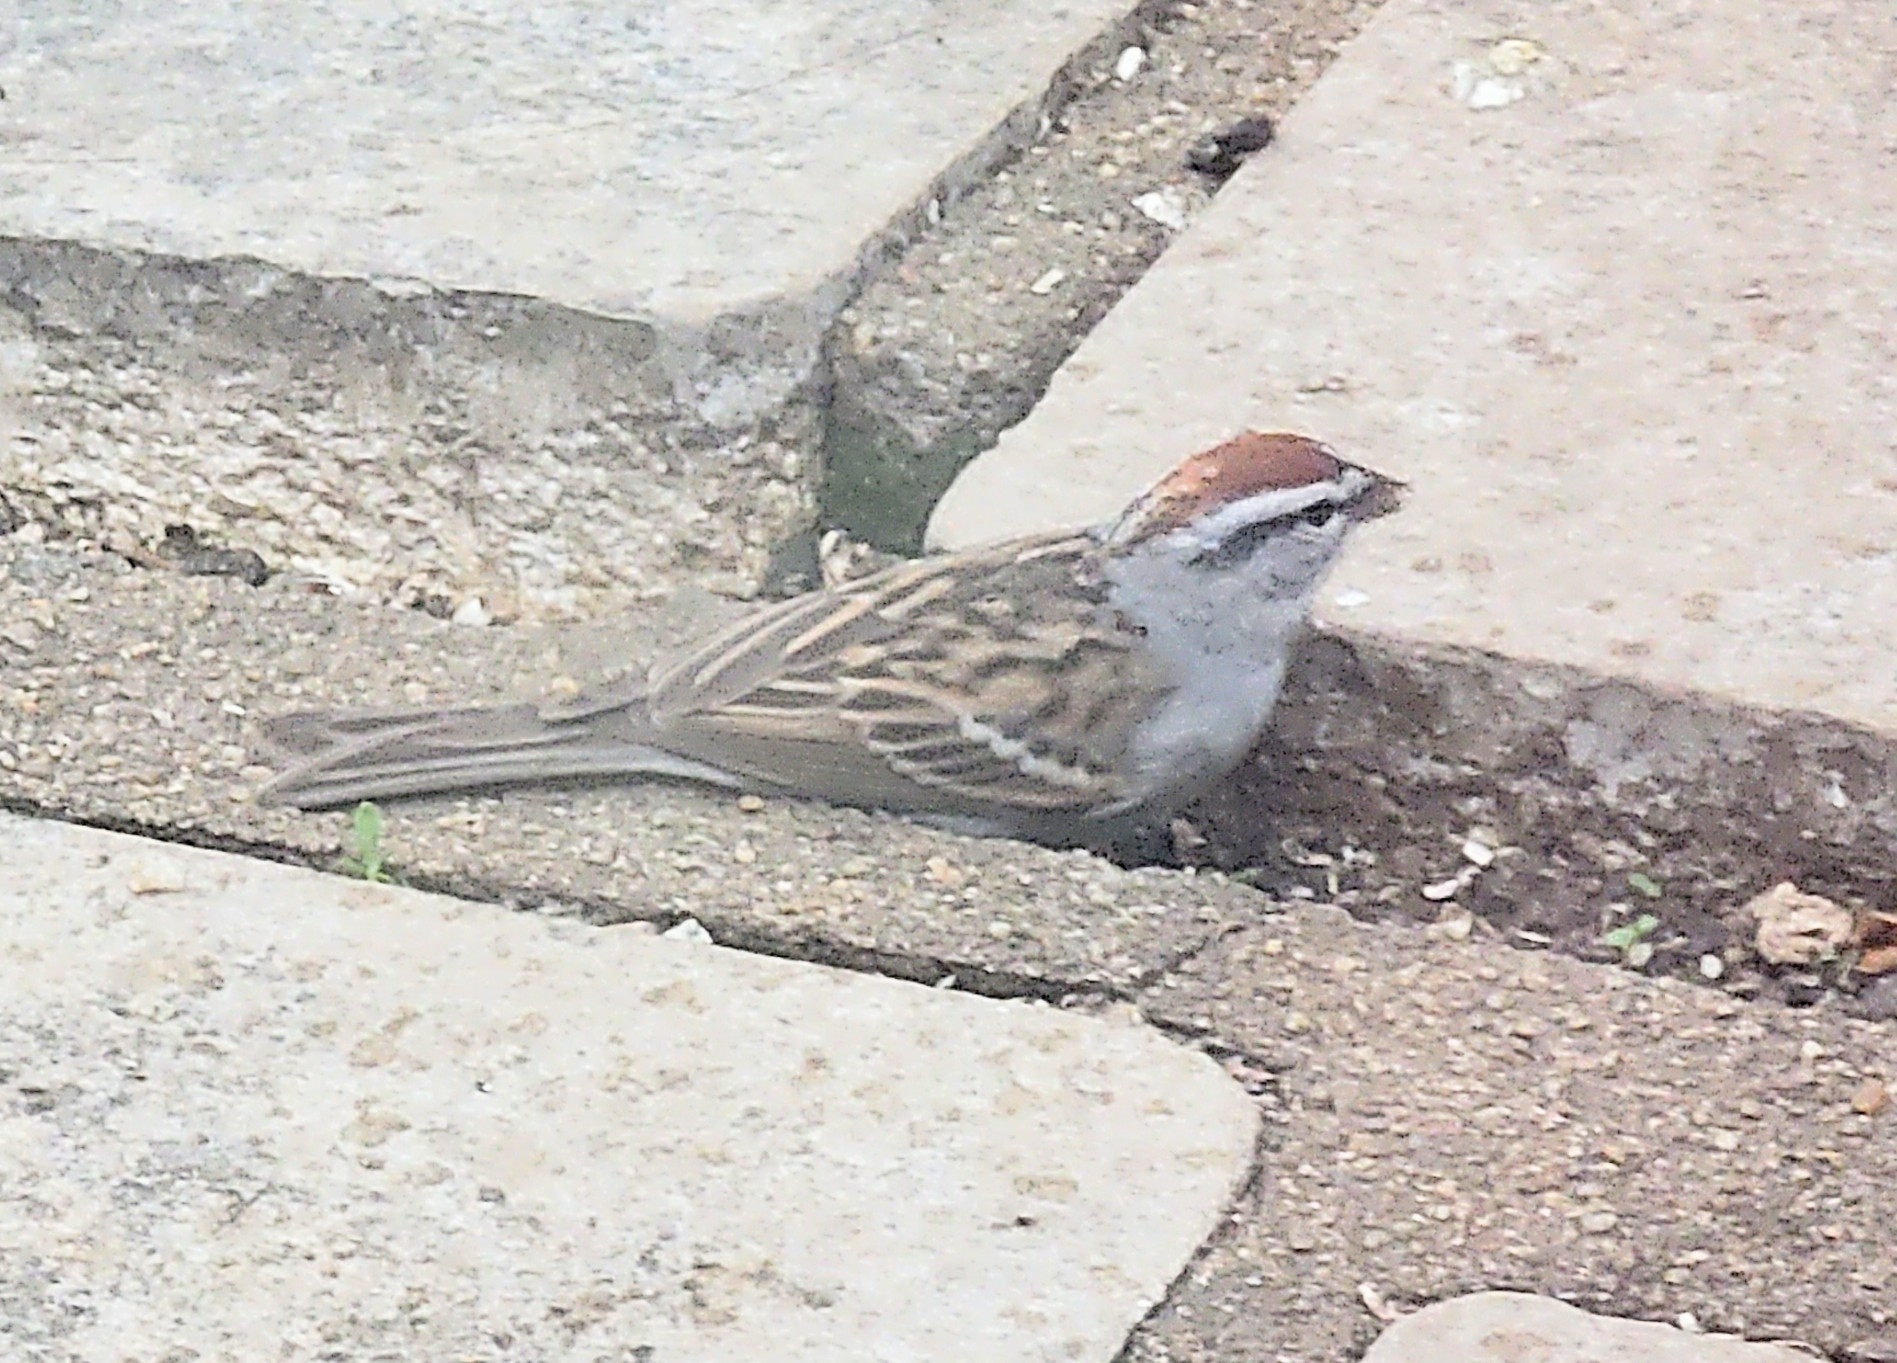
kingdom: Animalia
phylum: Chordata
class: Aves
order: Passeriformes
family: Passerellidae
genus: Spizella
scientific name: Spizella passerina
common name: Chipping sparrow
